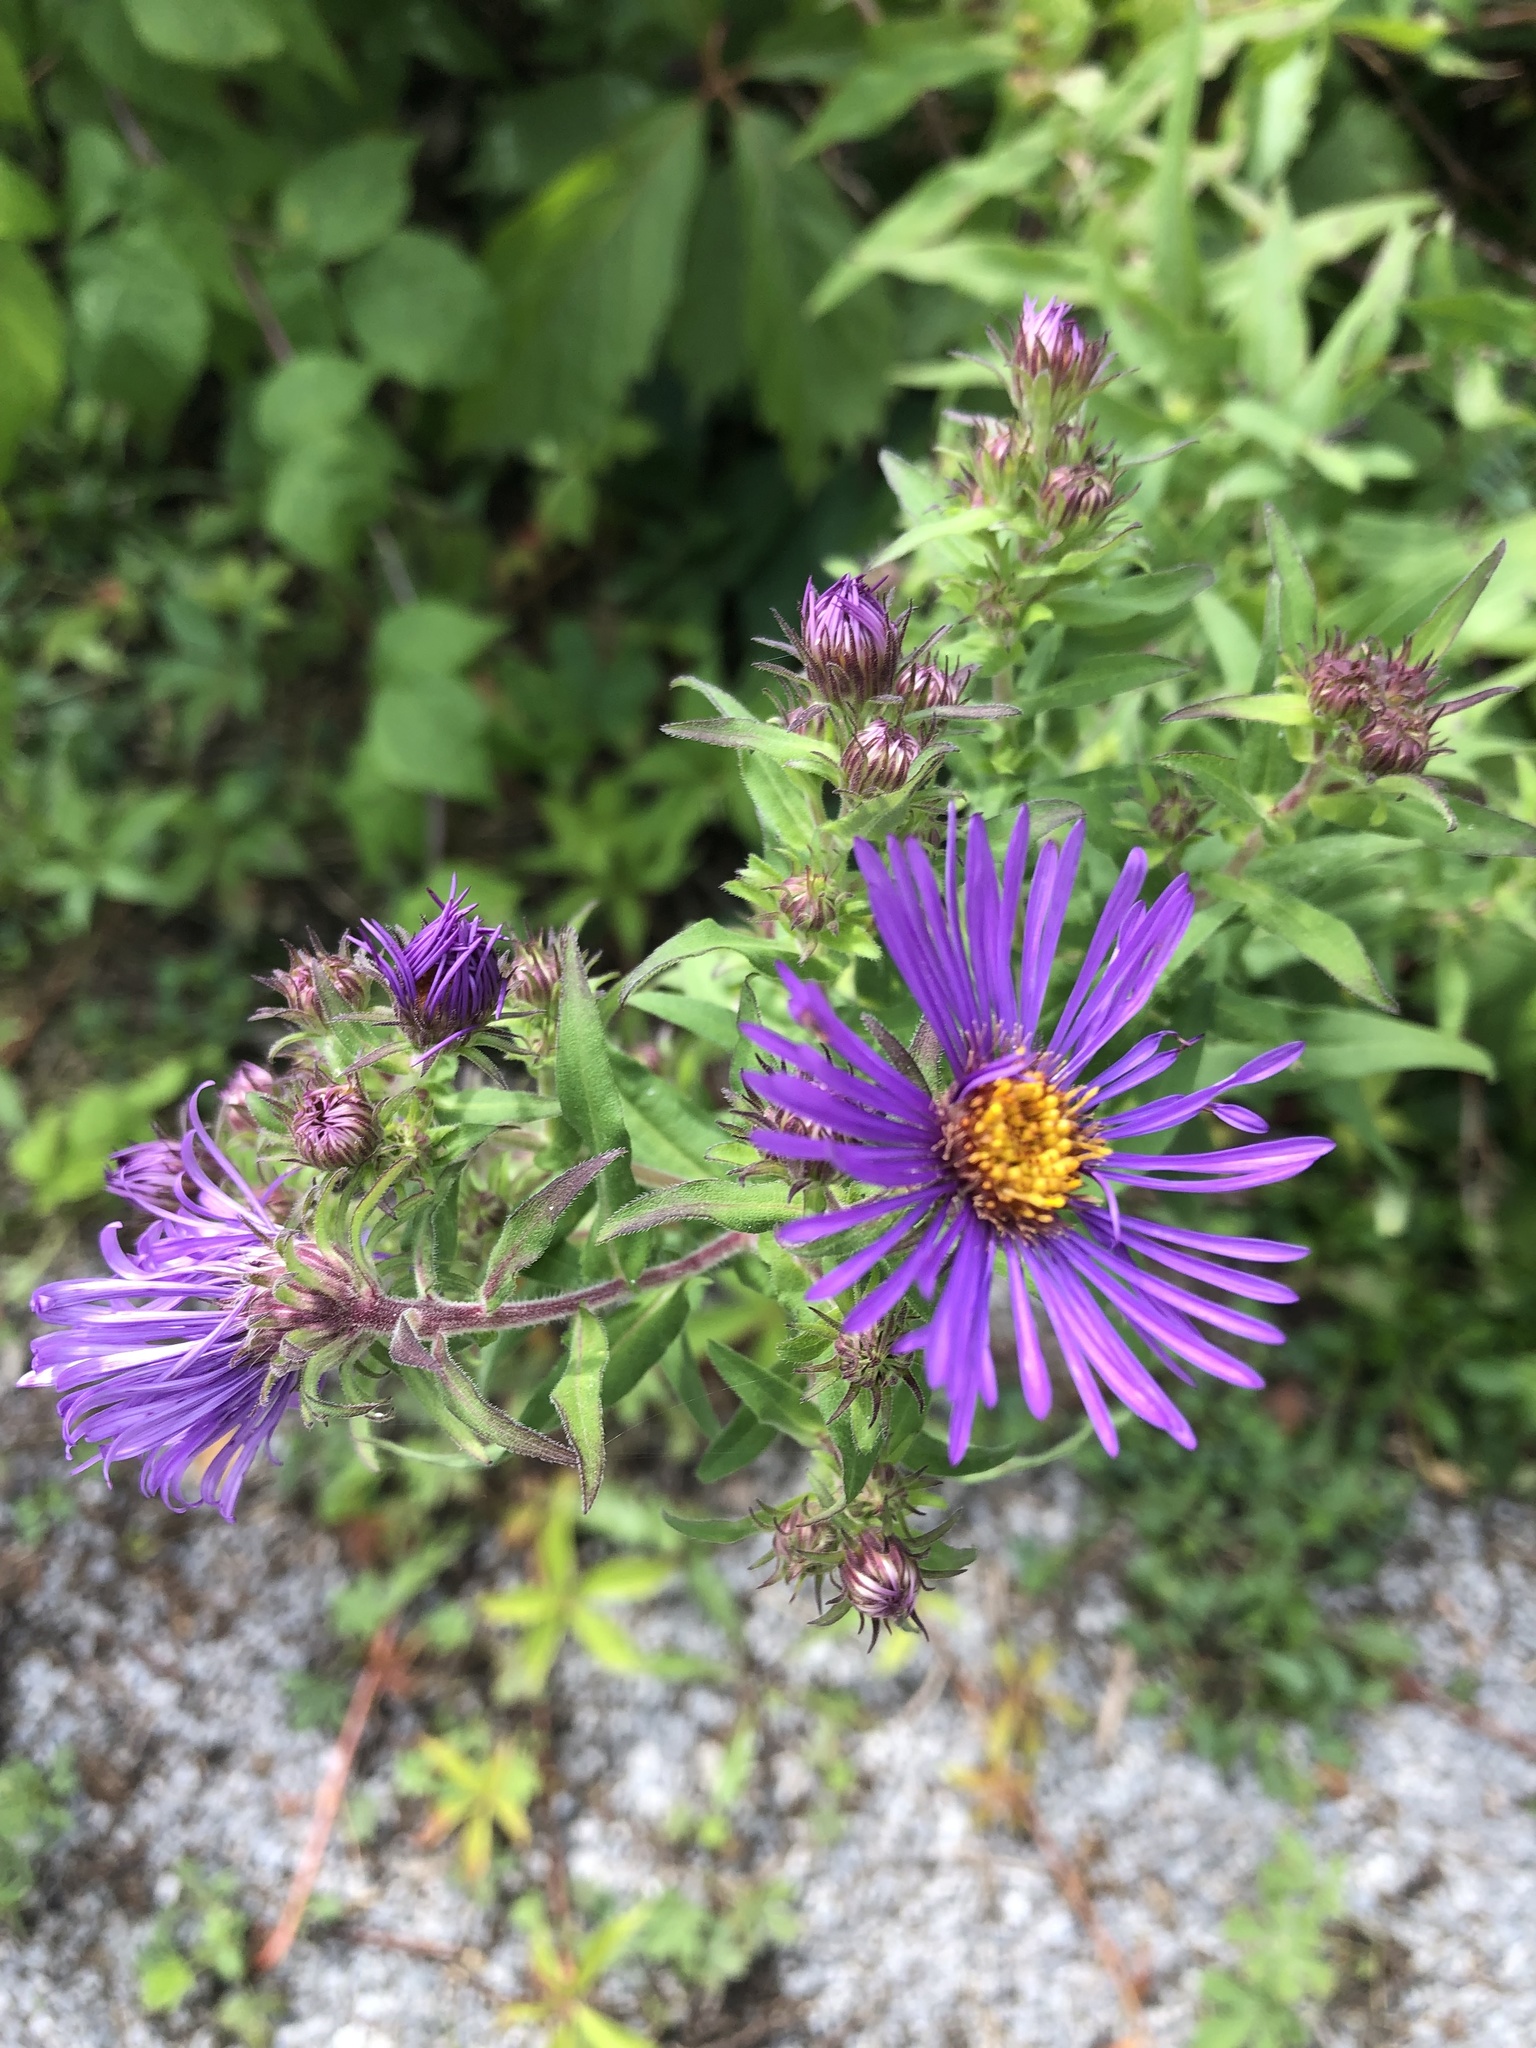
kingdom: Plantae
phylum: Tracheophyta
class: Magnoliopsida
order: Asterales
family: Asteraceae
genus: Symphyotrichum
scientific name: Symphyotrichum novae-angliae
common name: Michaelmas daisy
